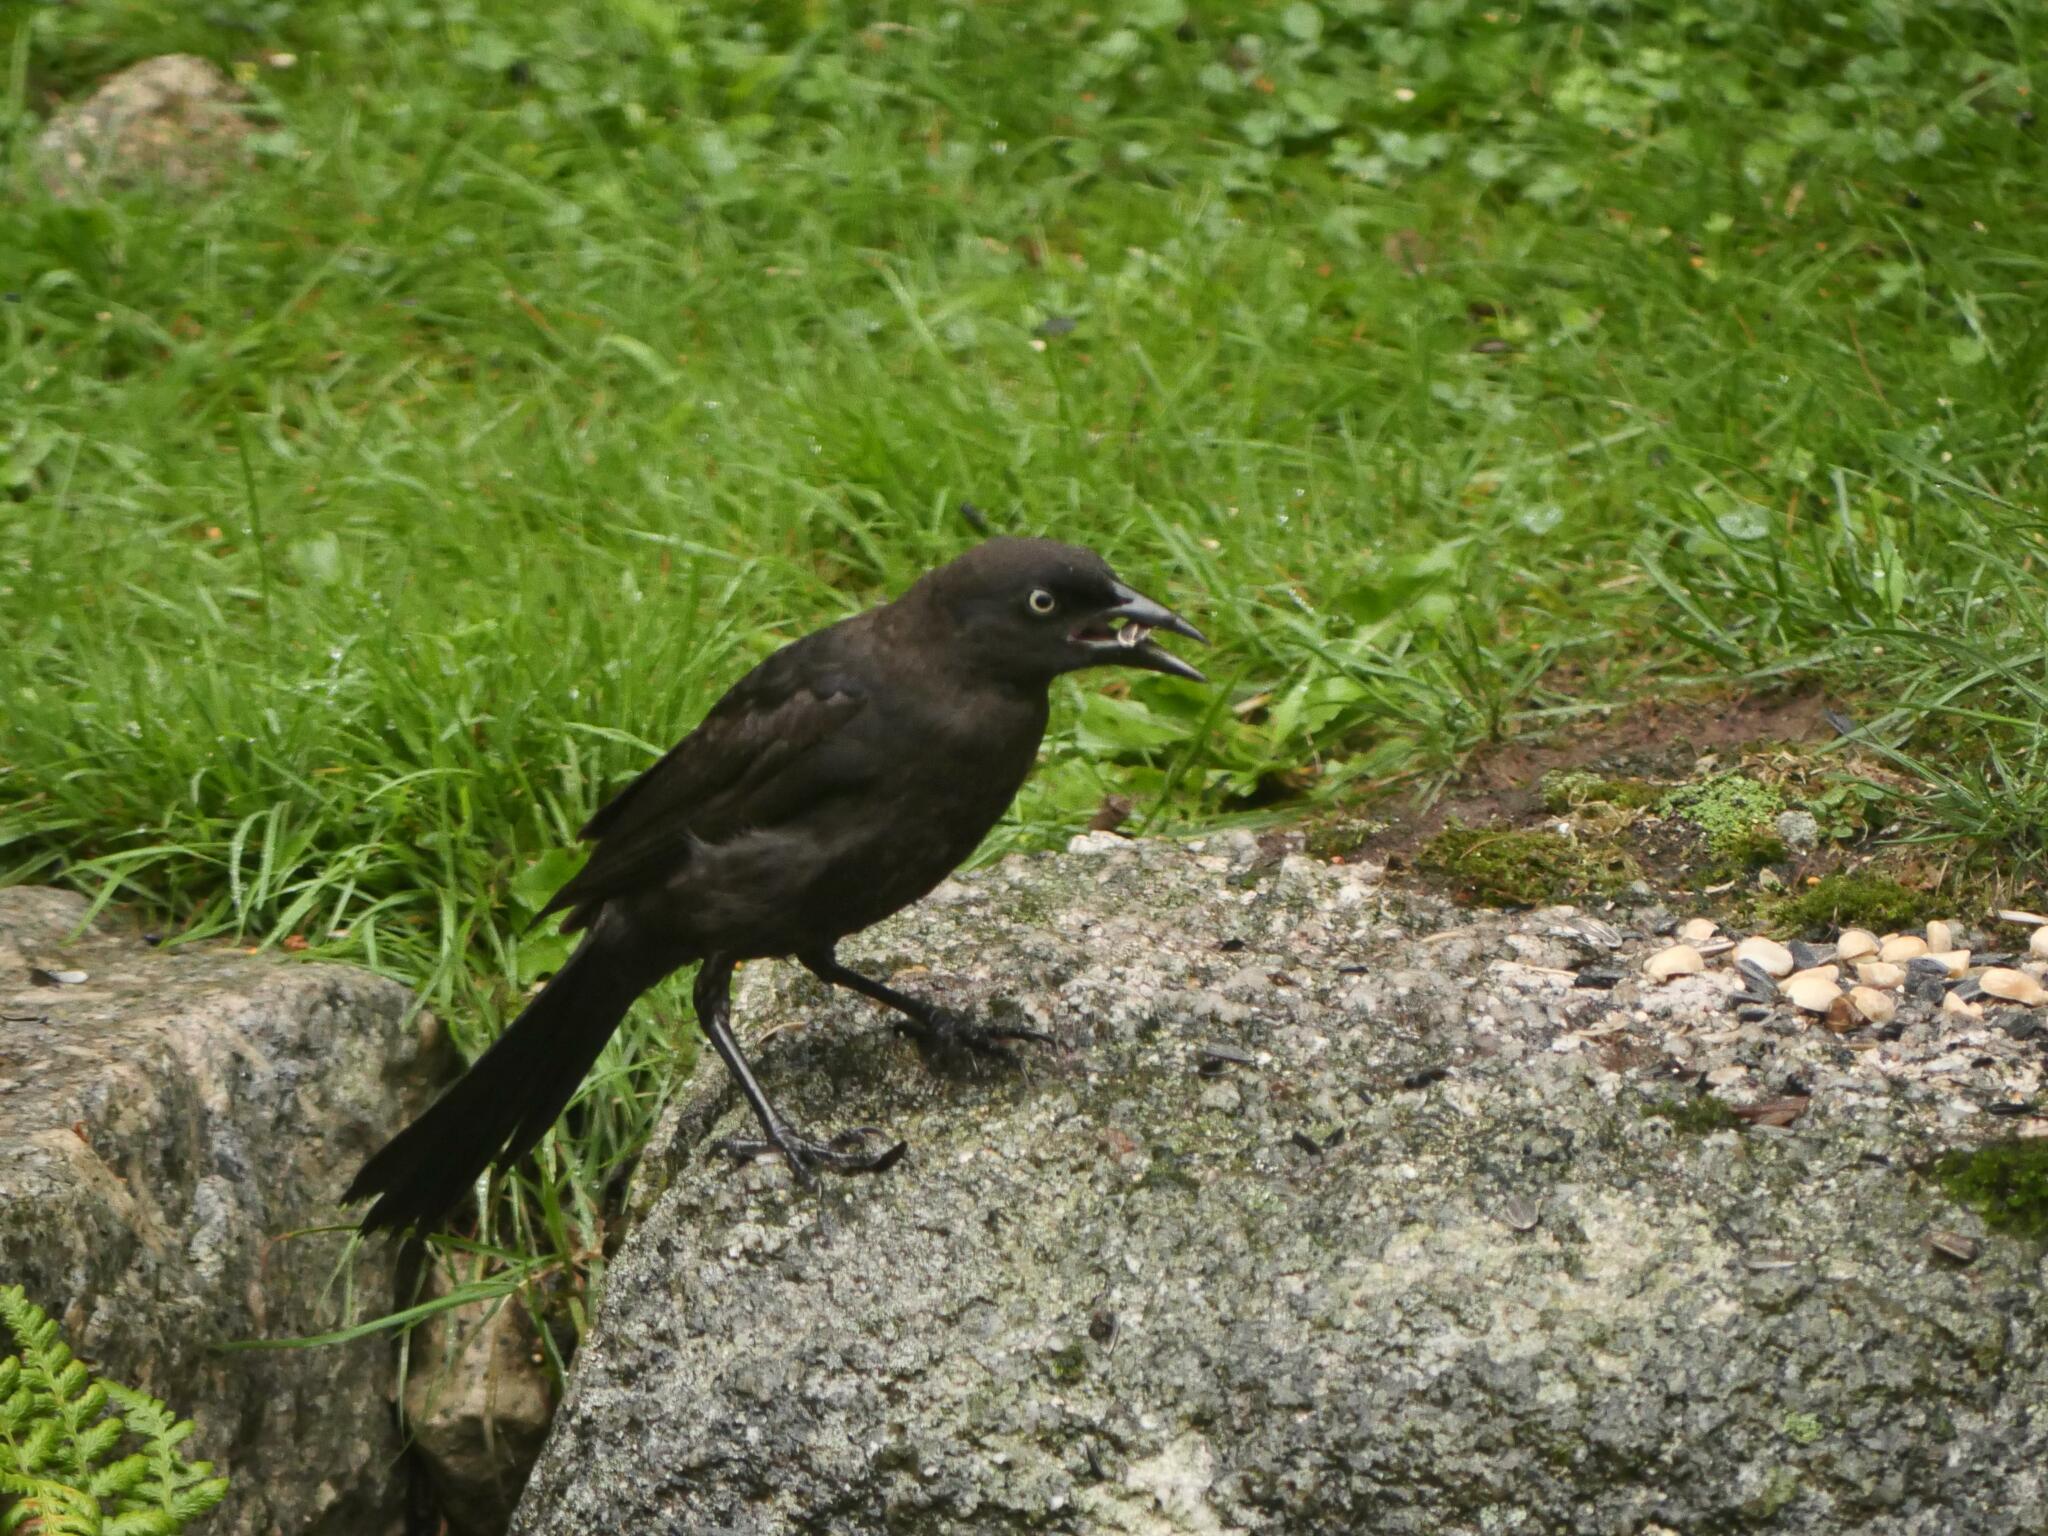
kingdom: Animalia
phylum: Chordata
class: Aves
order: Passeriformes
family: Icteridae
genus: Quiscalus
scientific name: Quiscalus quiscula
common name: Common grackle
